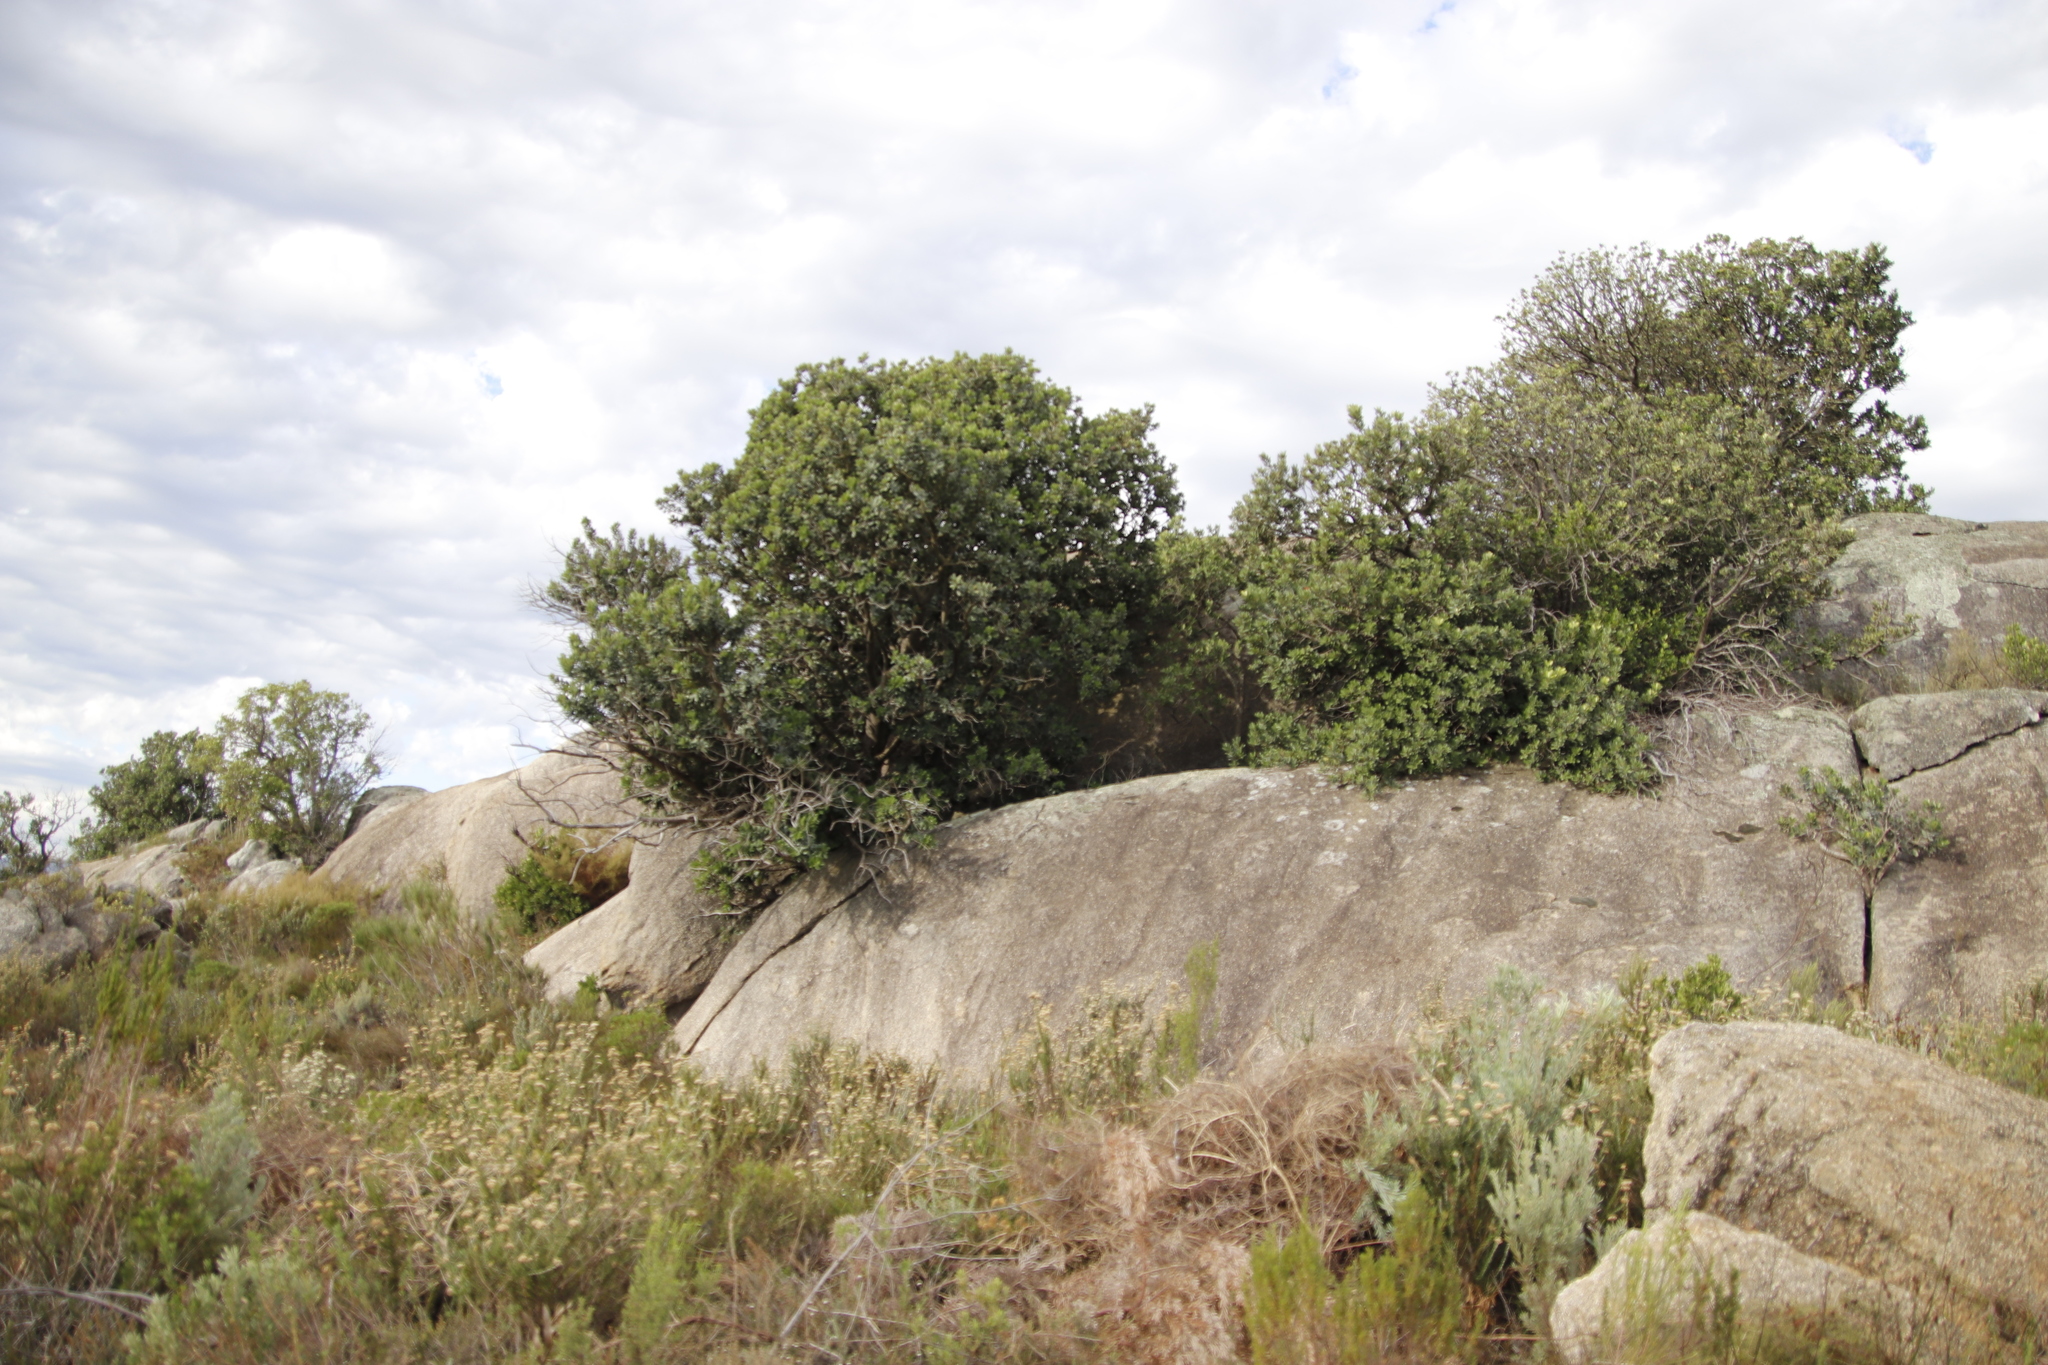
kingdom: Plantae
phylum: Tracheophyta
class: Magnoliopsida
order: Sapindales
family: Anacardiaceae
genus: Heeria
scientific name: Heeria argentea
